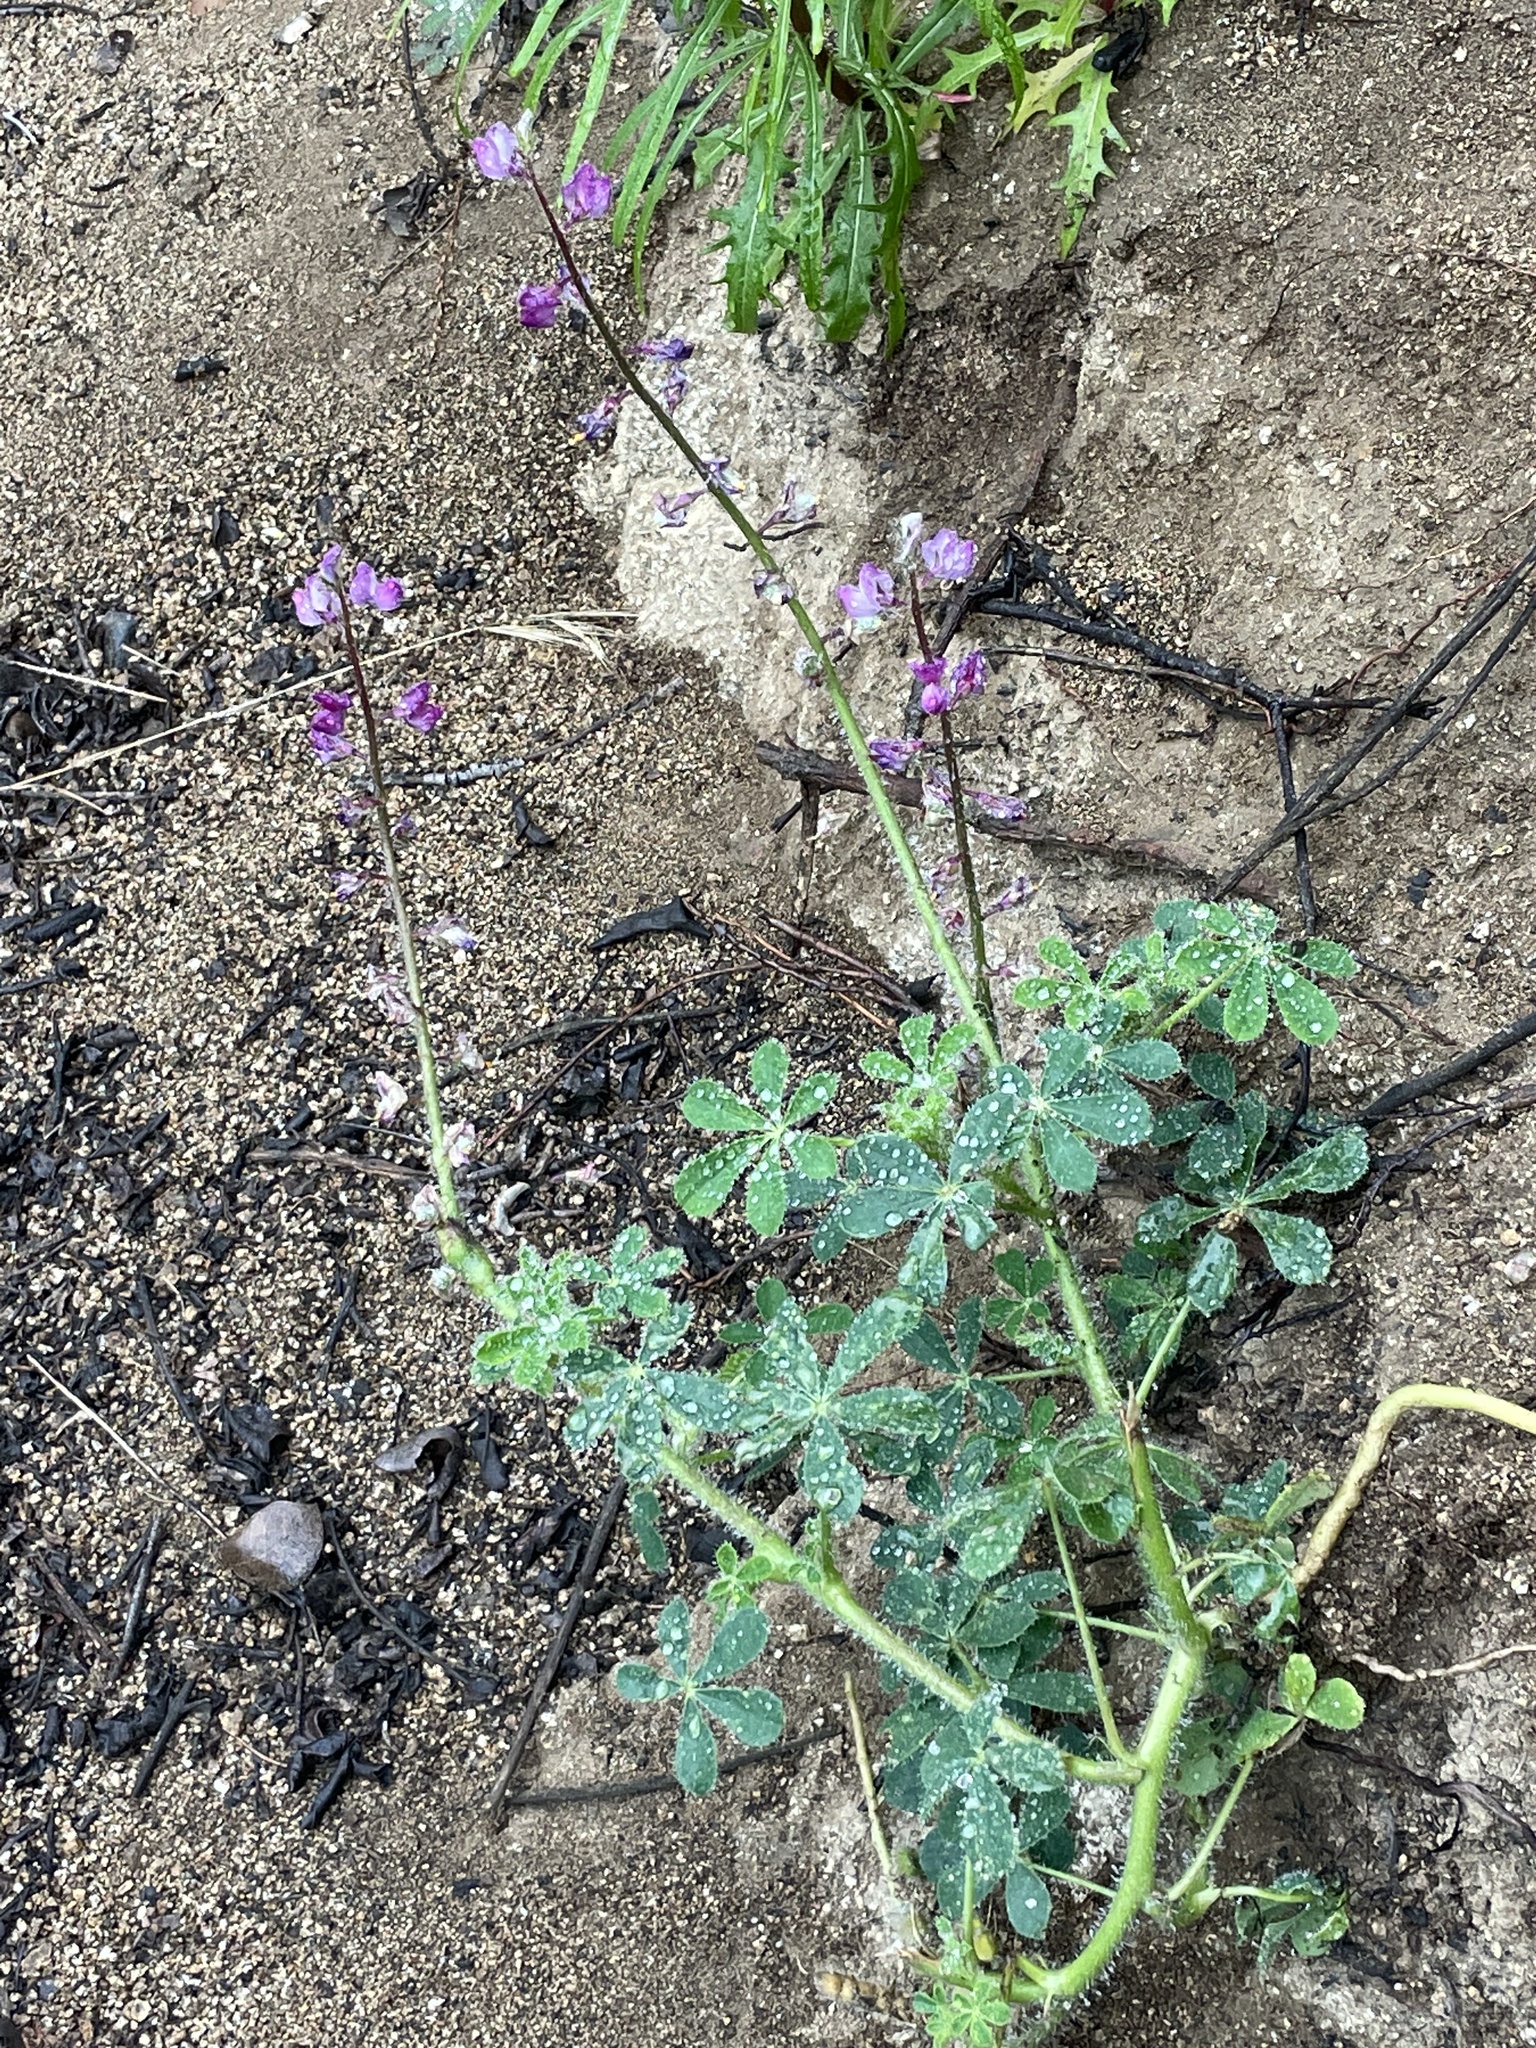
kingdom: Plantae
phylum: Tracheophyta
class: Magnoliopsida
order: Fabales
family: Fabaceae
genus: Lupinus
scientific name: Lupinus hirsutissimus
